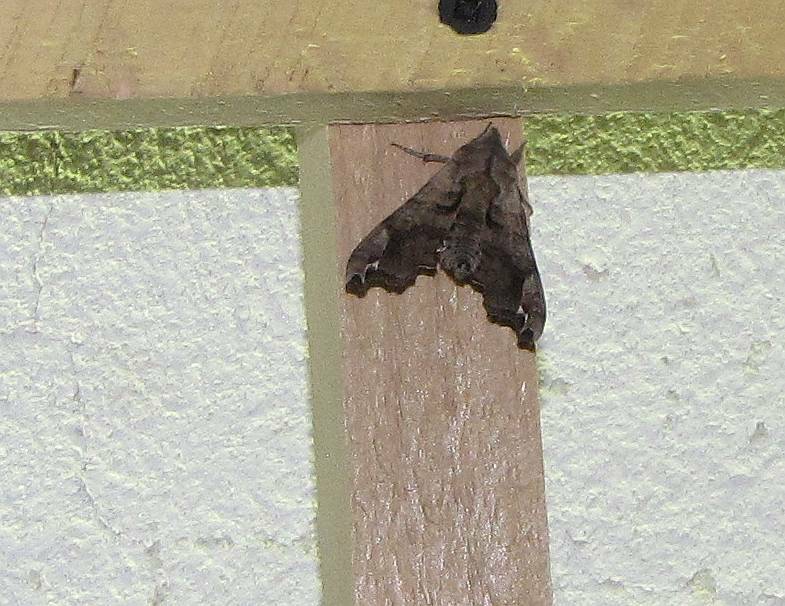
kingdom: Animalia
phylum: Arthropoda
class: Insecta
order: Lepidoptera
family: Sphingidae
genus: Deidamia
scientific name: Deidamia inscriptum
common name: Lettered sphinx
